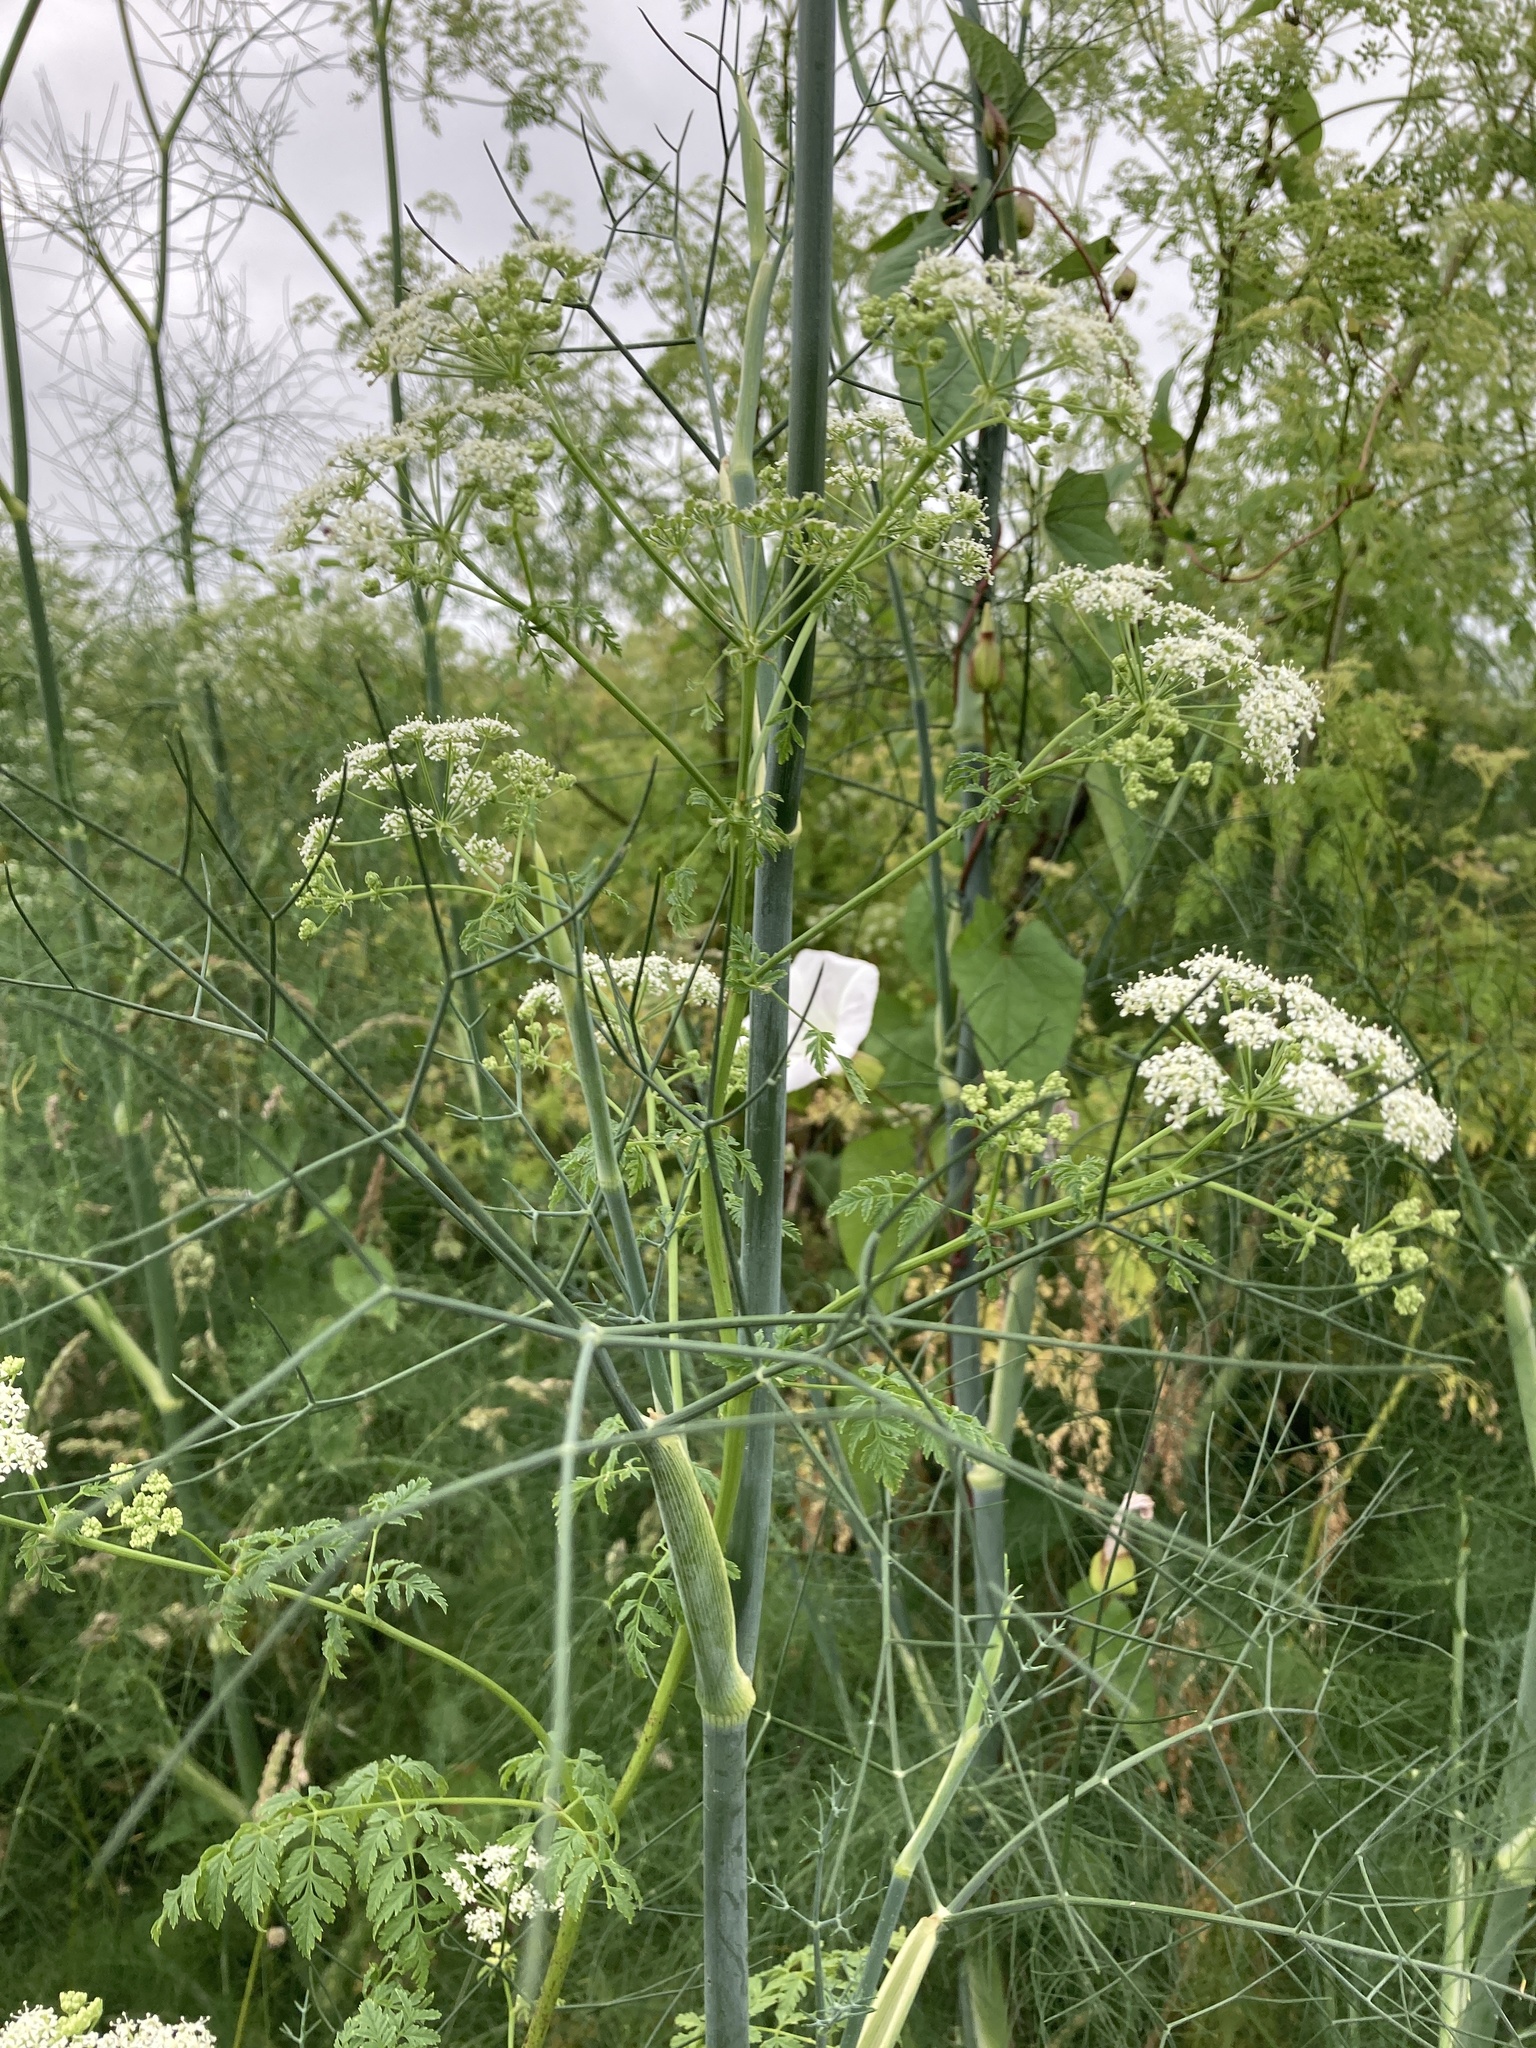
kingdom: Plantae
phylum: Tracheophyta
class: Magnoliopsida
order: Apiales
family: Apiaceae
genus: Conium
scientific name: Conium maculatum
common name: Hemlock
